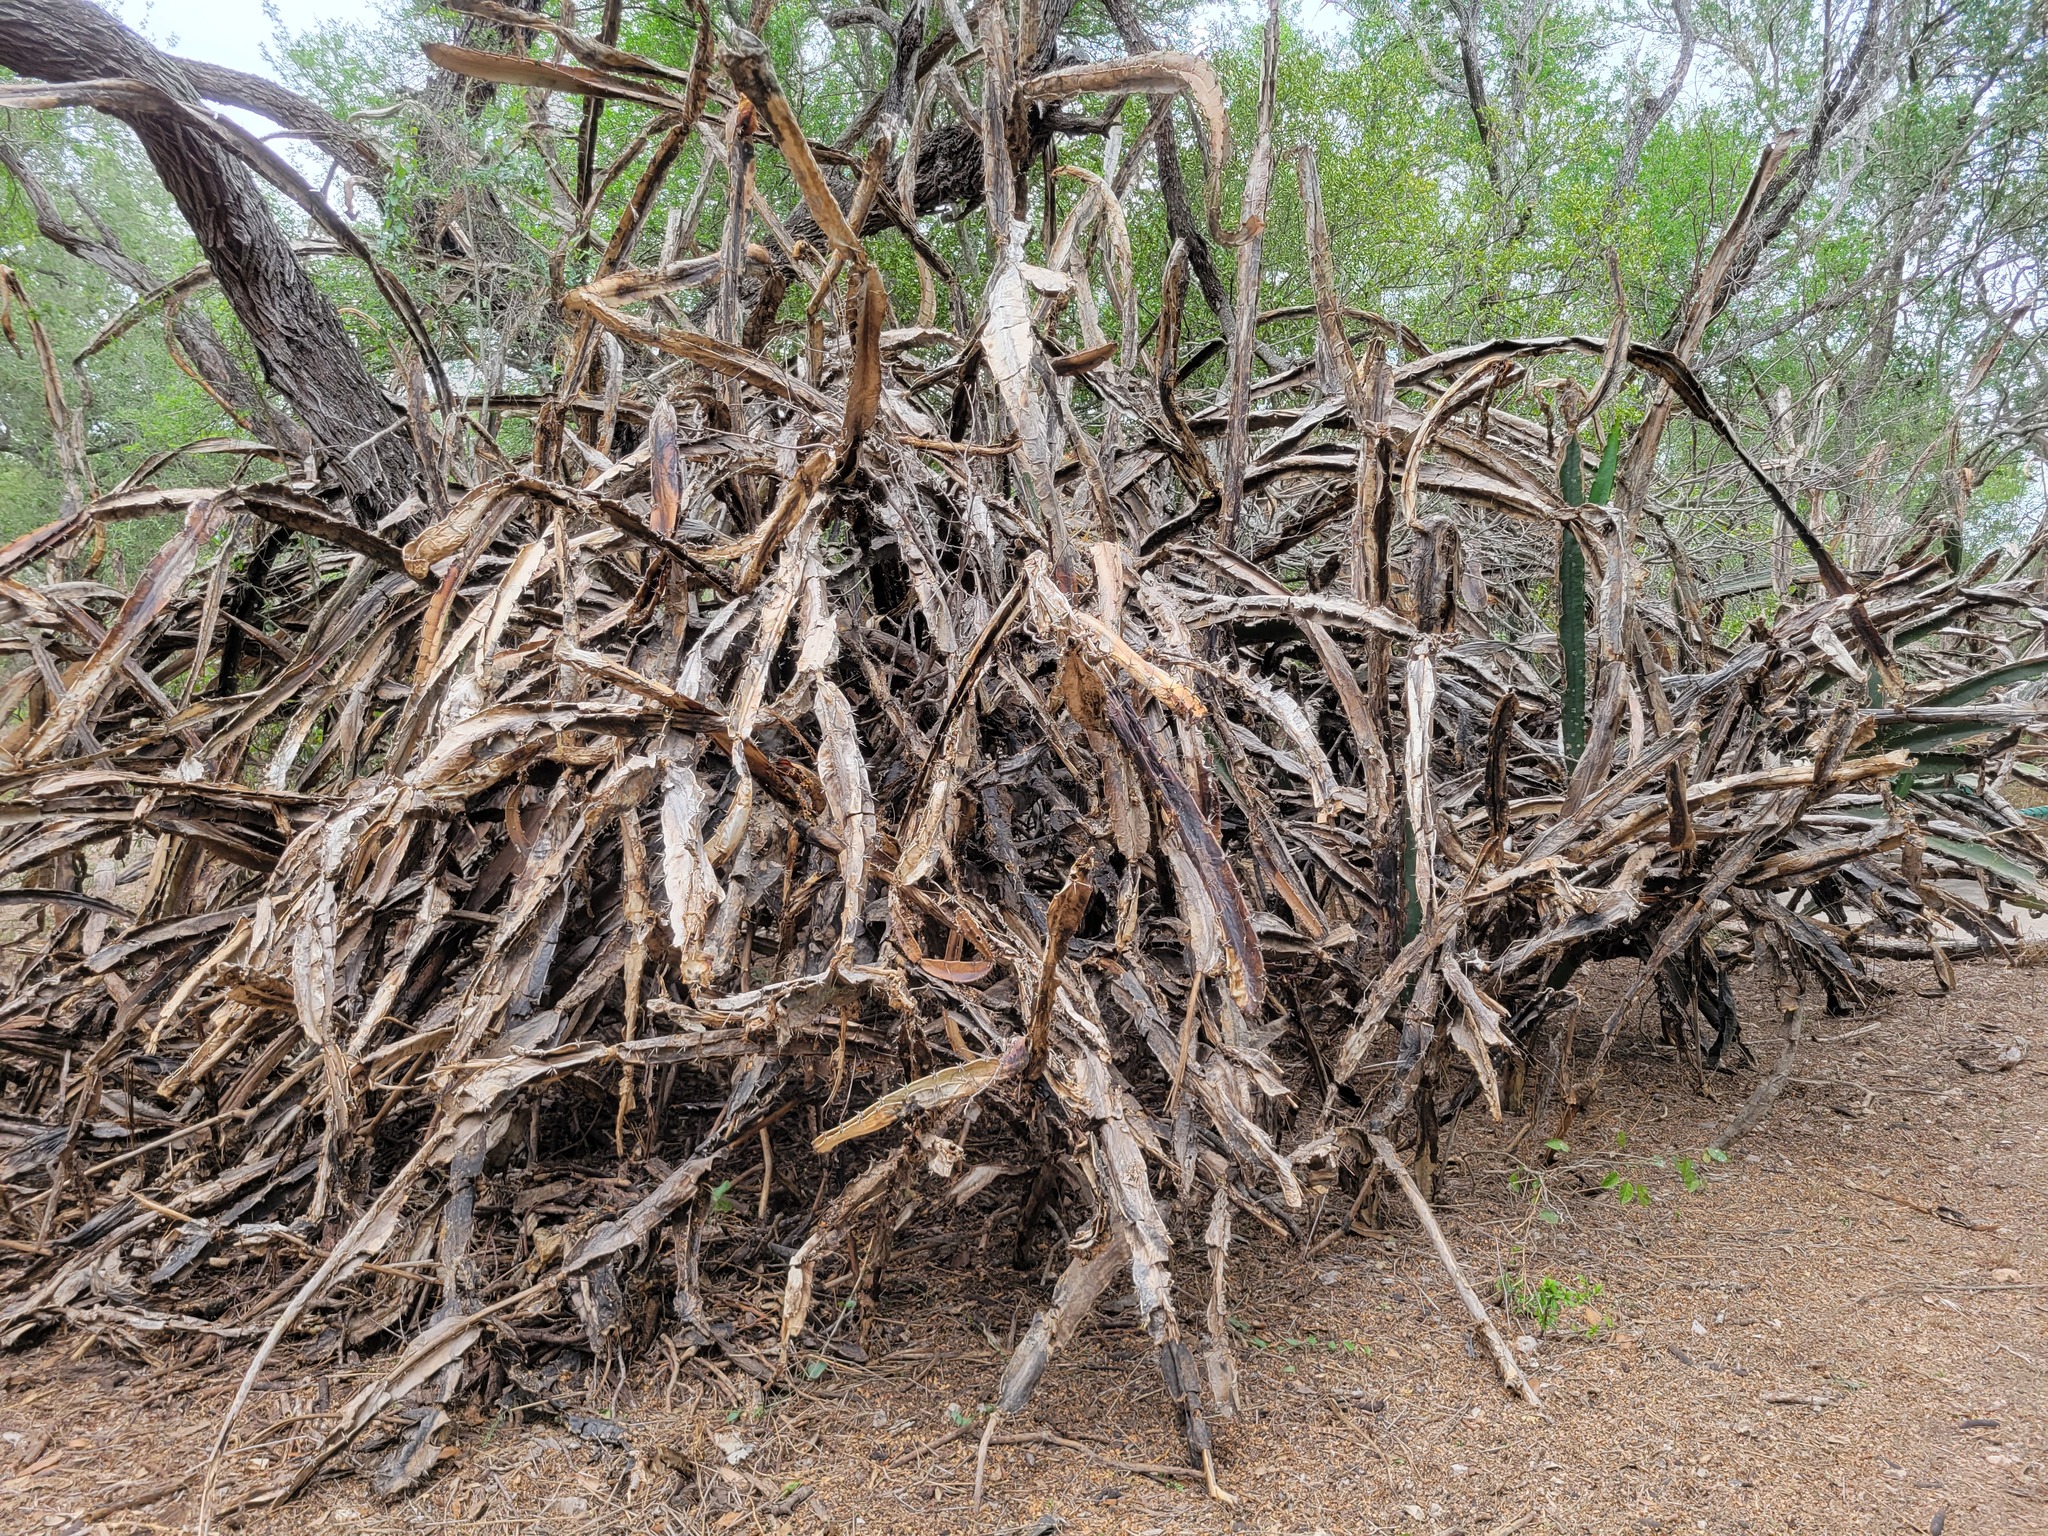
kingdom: Plantae
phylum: Tracheophyta
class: Magnoliopsida
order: Caryophyllales
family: Cactaceae
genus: Acanthocereus
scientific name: Acanthocereus tetragonus
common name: Triangle cactus
